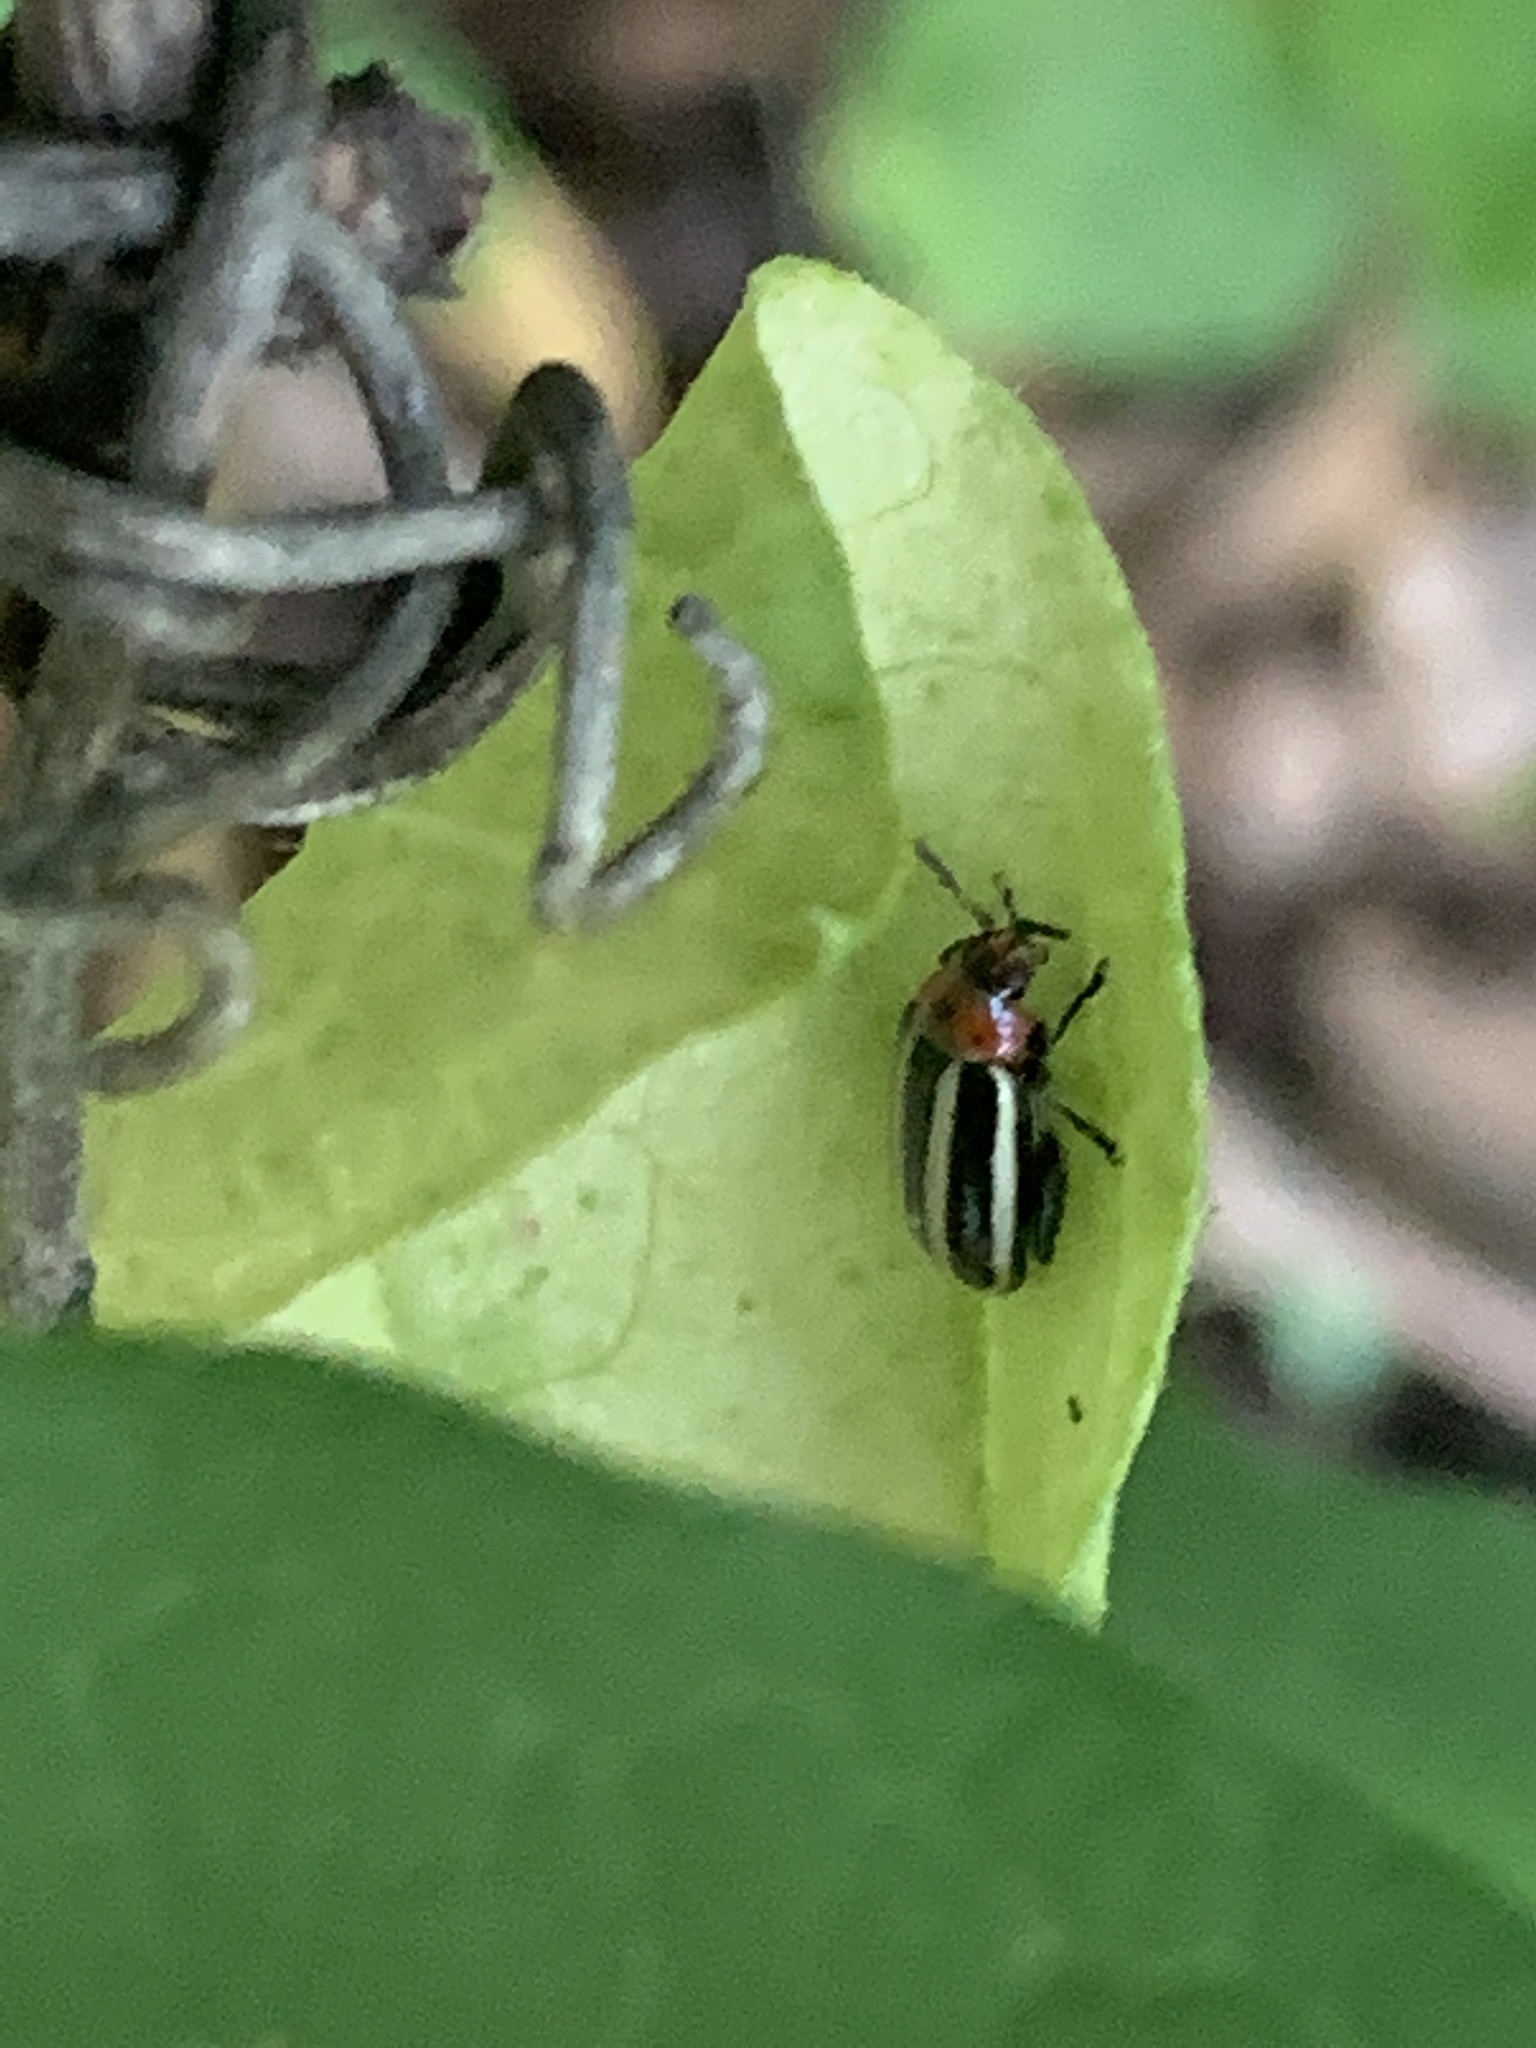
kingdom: Animalia
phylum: Arthropoda
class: Insecta
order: Coleoptera
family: Chrysomelidae
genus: Disonycha
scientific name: Disonycha glabrata
